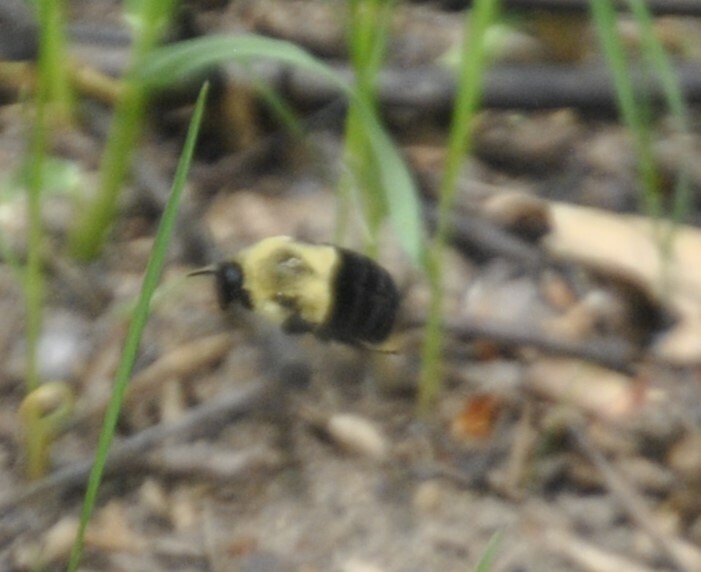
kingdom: Animalia
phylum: Arthropoda
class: Insecta
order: Hymenoptera
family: Apidae
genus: Bombus
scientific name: Bombus impatiens
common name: Common eastern bumble bee
